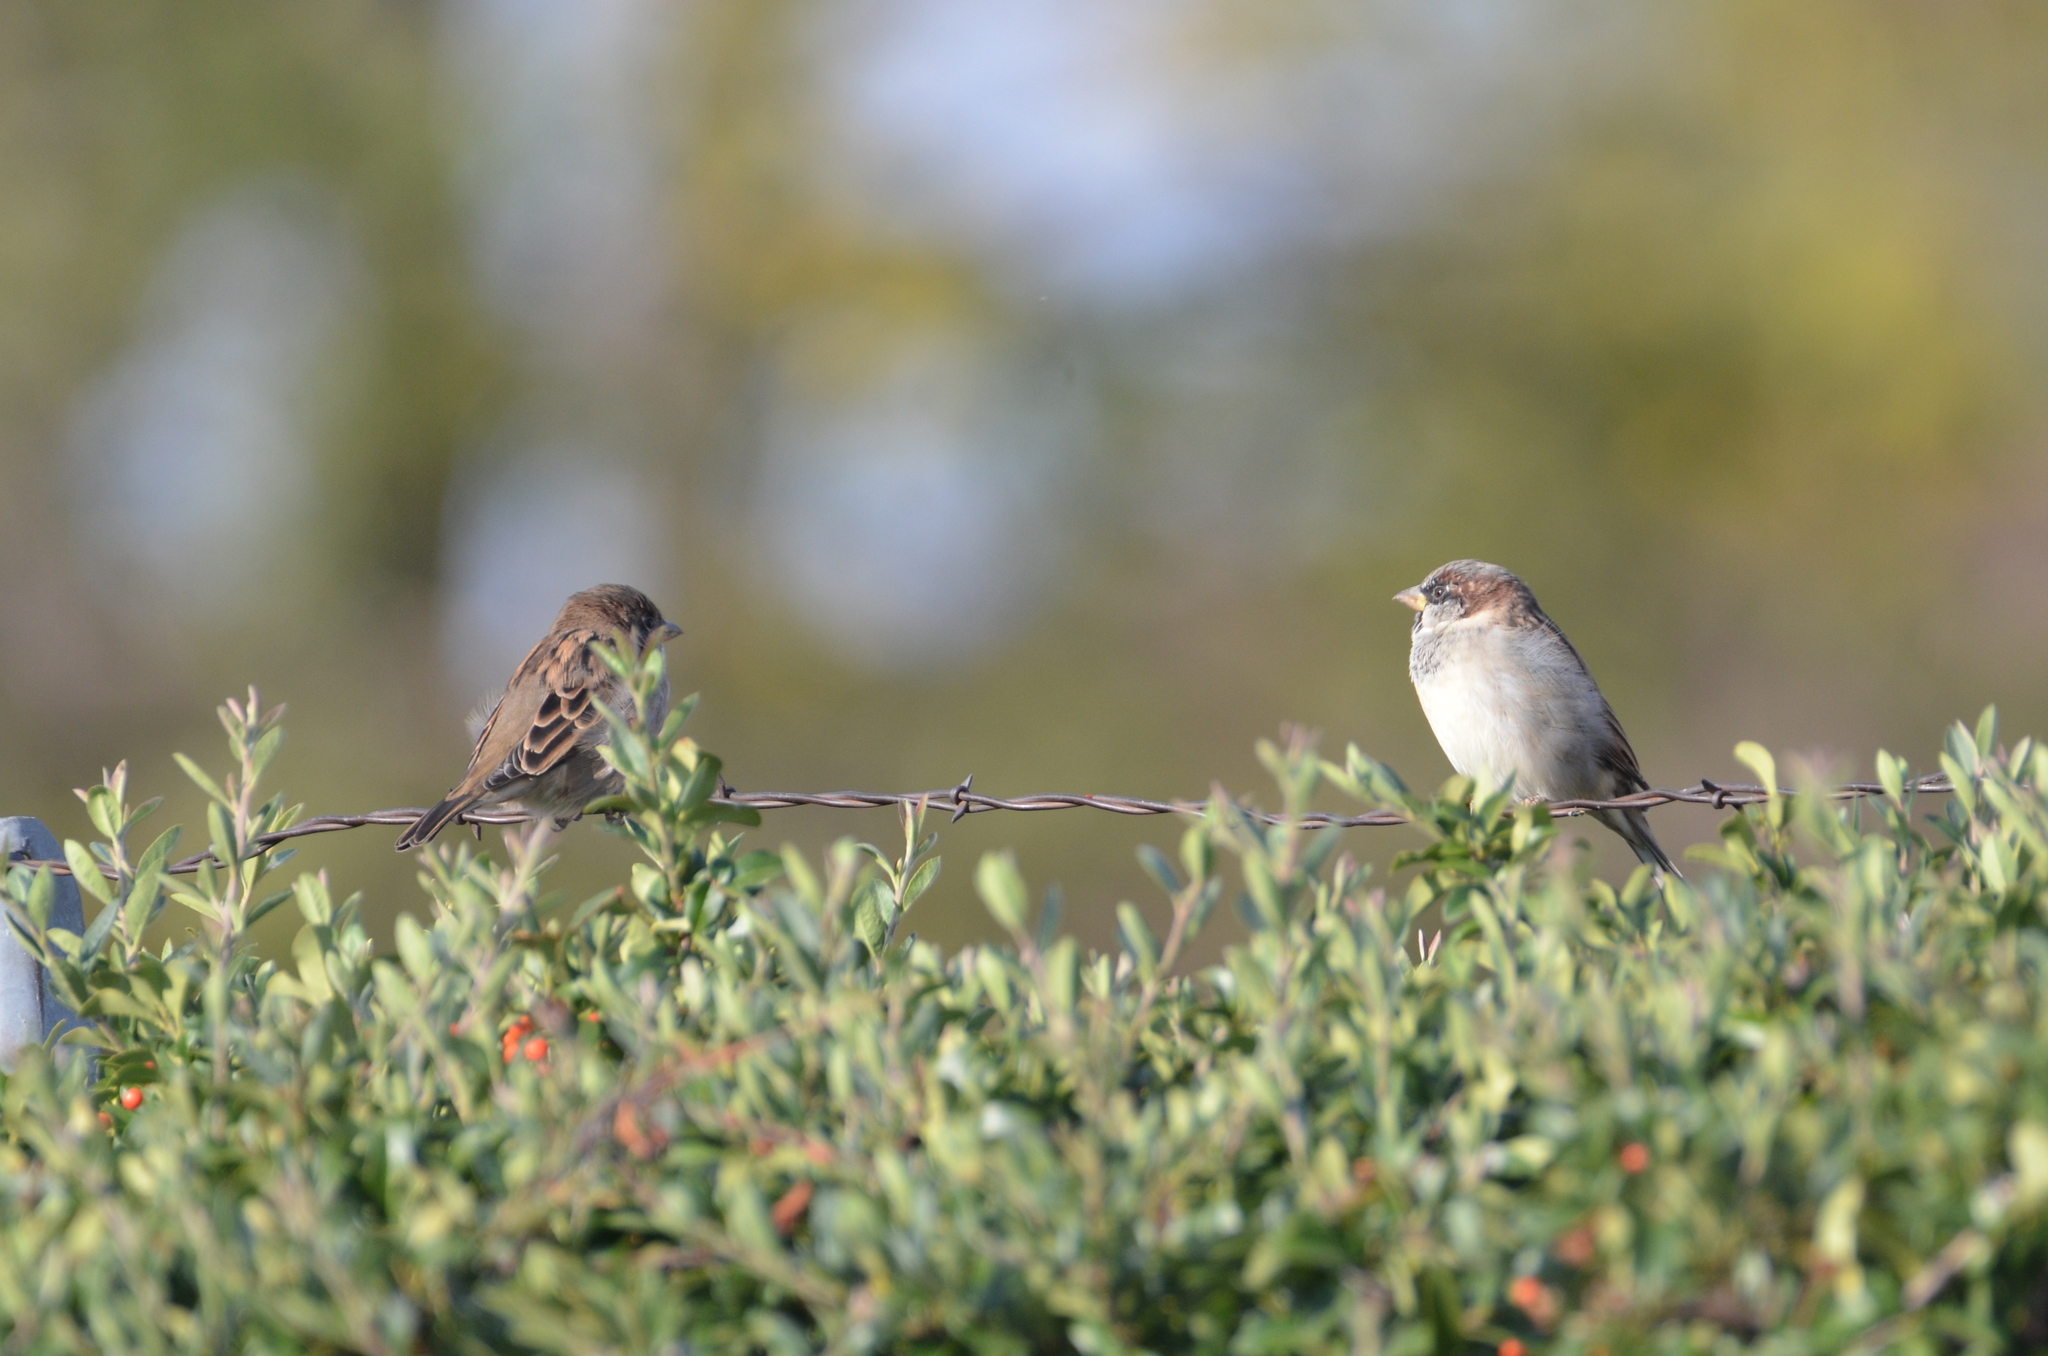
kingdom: Animalia
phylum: Chordata
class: Aves
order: Passeriformes
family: Passeridae
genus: Passer
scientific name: Passer domesticus
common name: House sparrow
